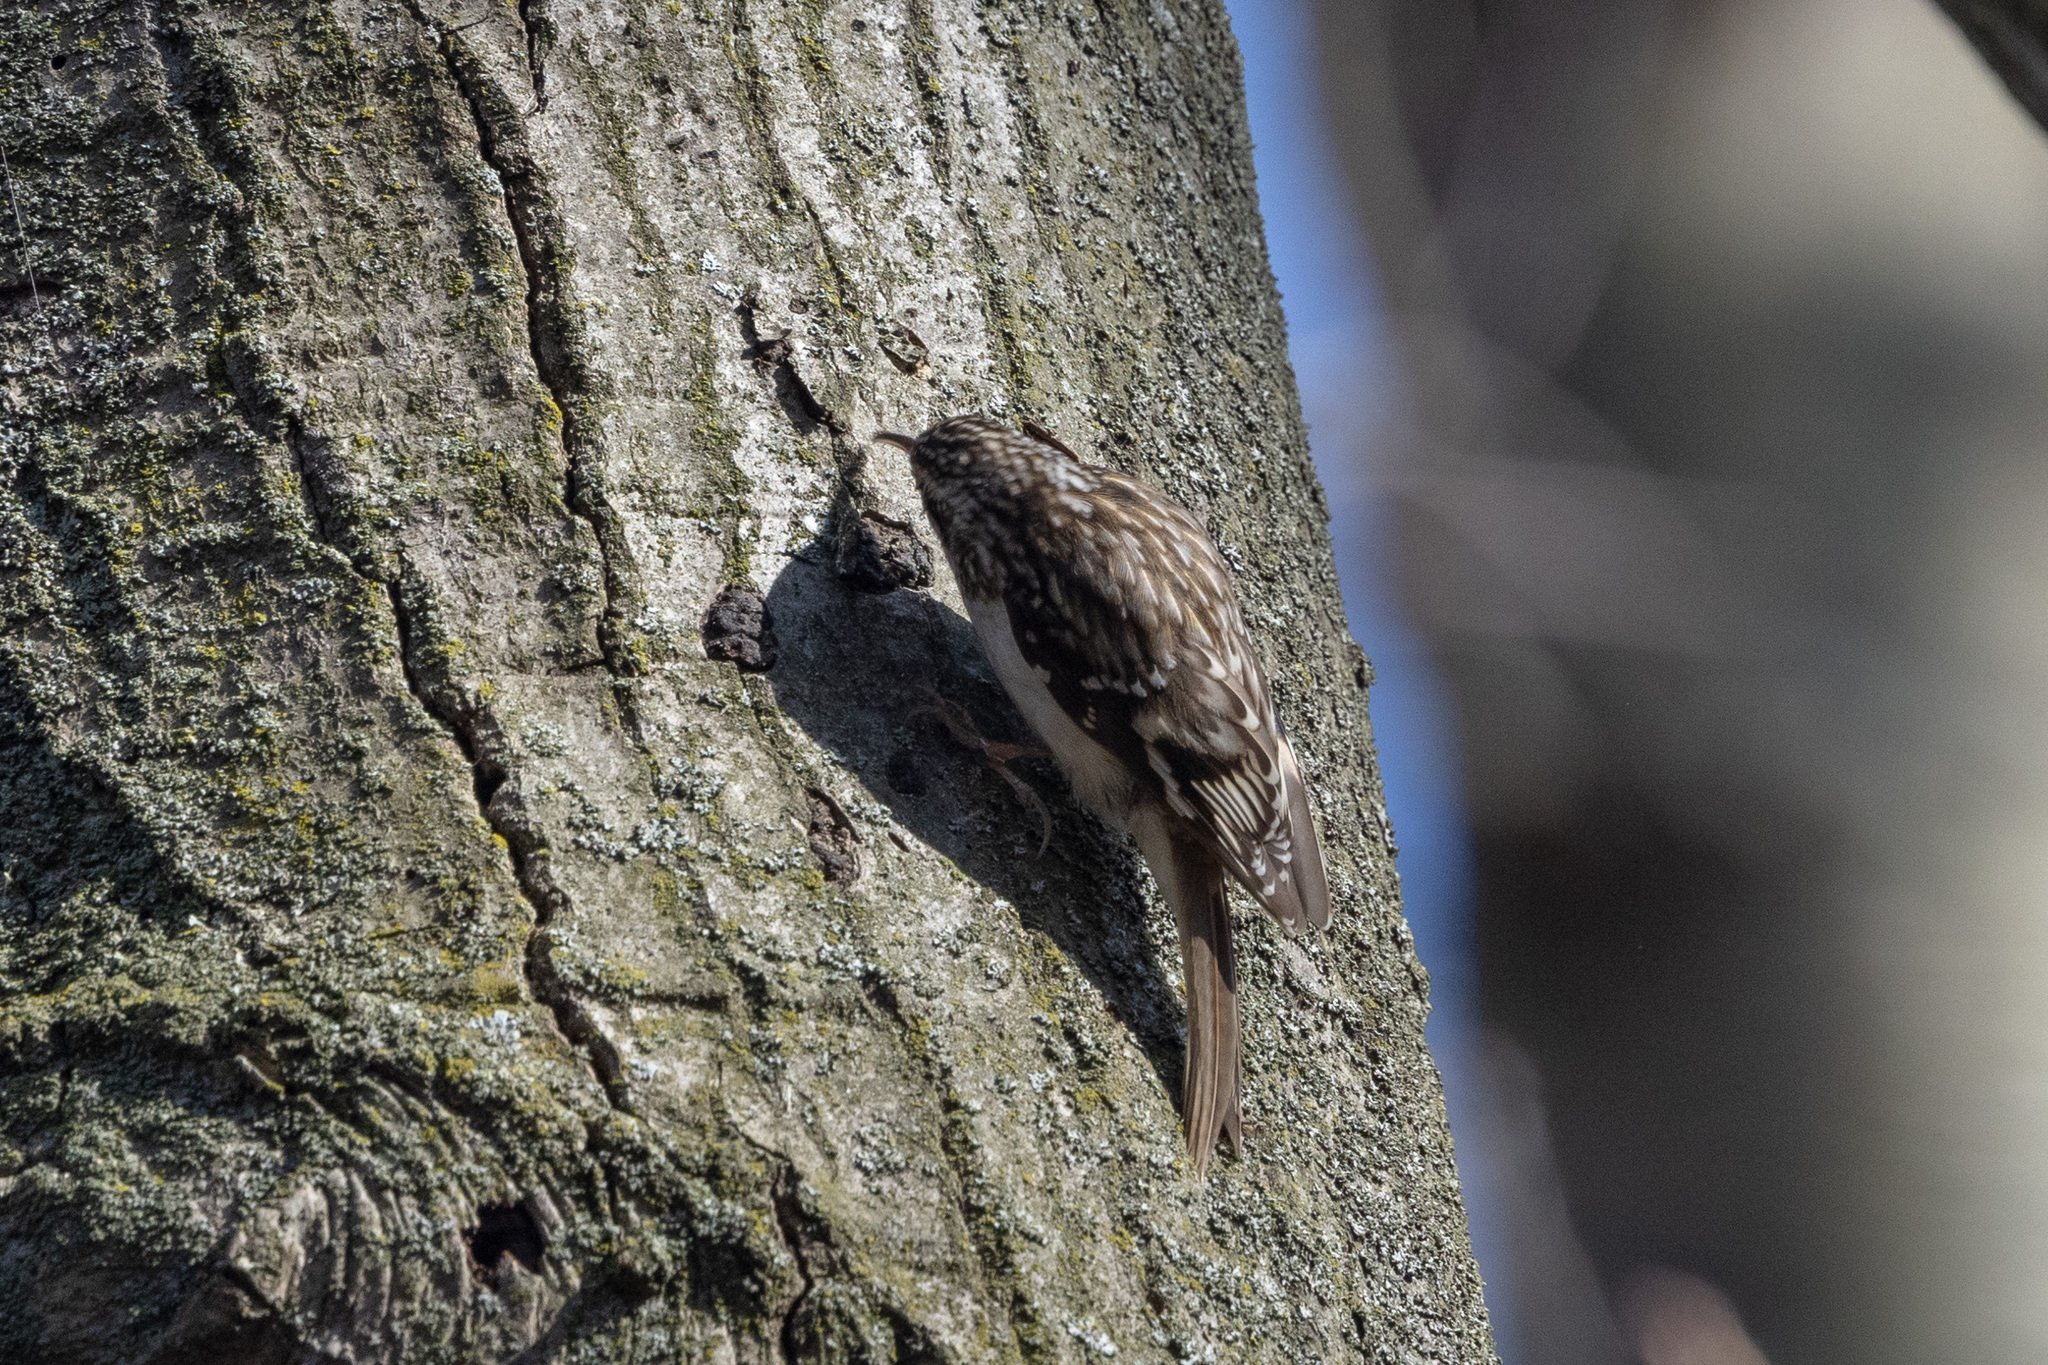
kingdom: Animalia
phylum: Chordata
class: Aves
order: Passeriformes
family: Certhiidae
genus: Certhia
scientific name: Certhia americana
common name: Brown creeper
